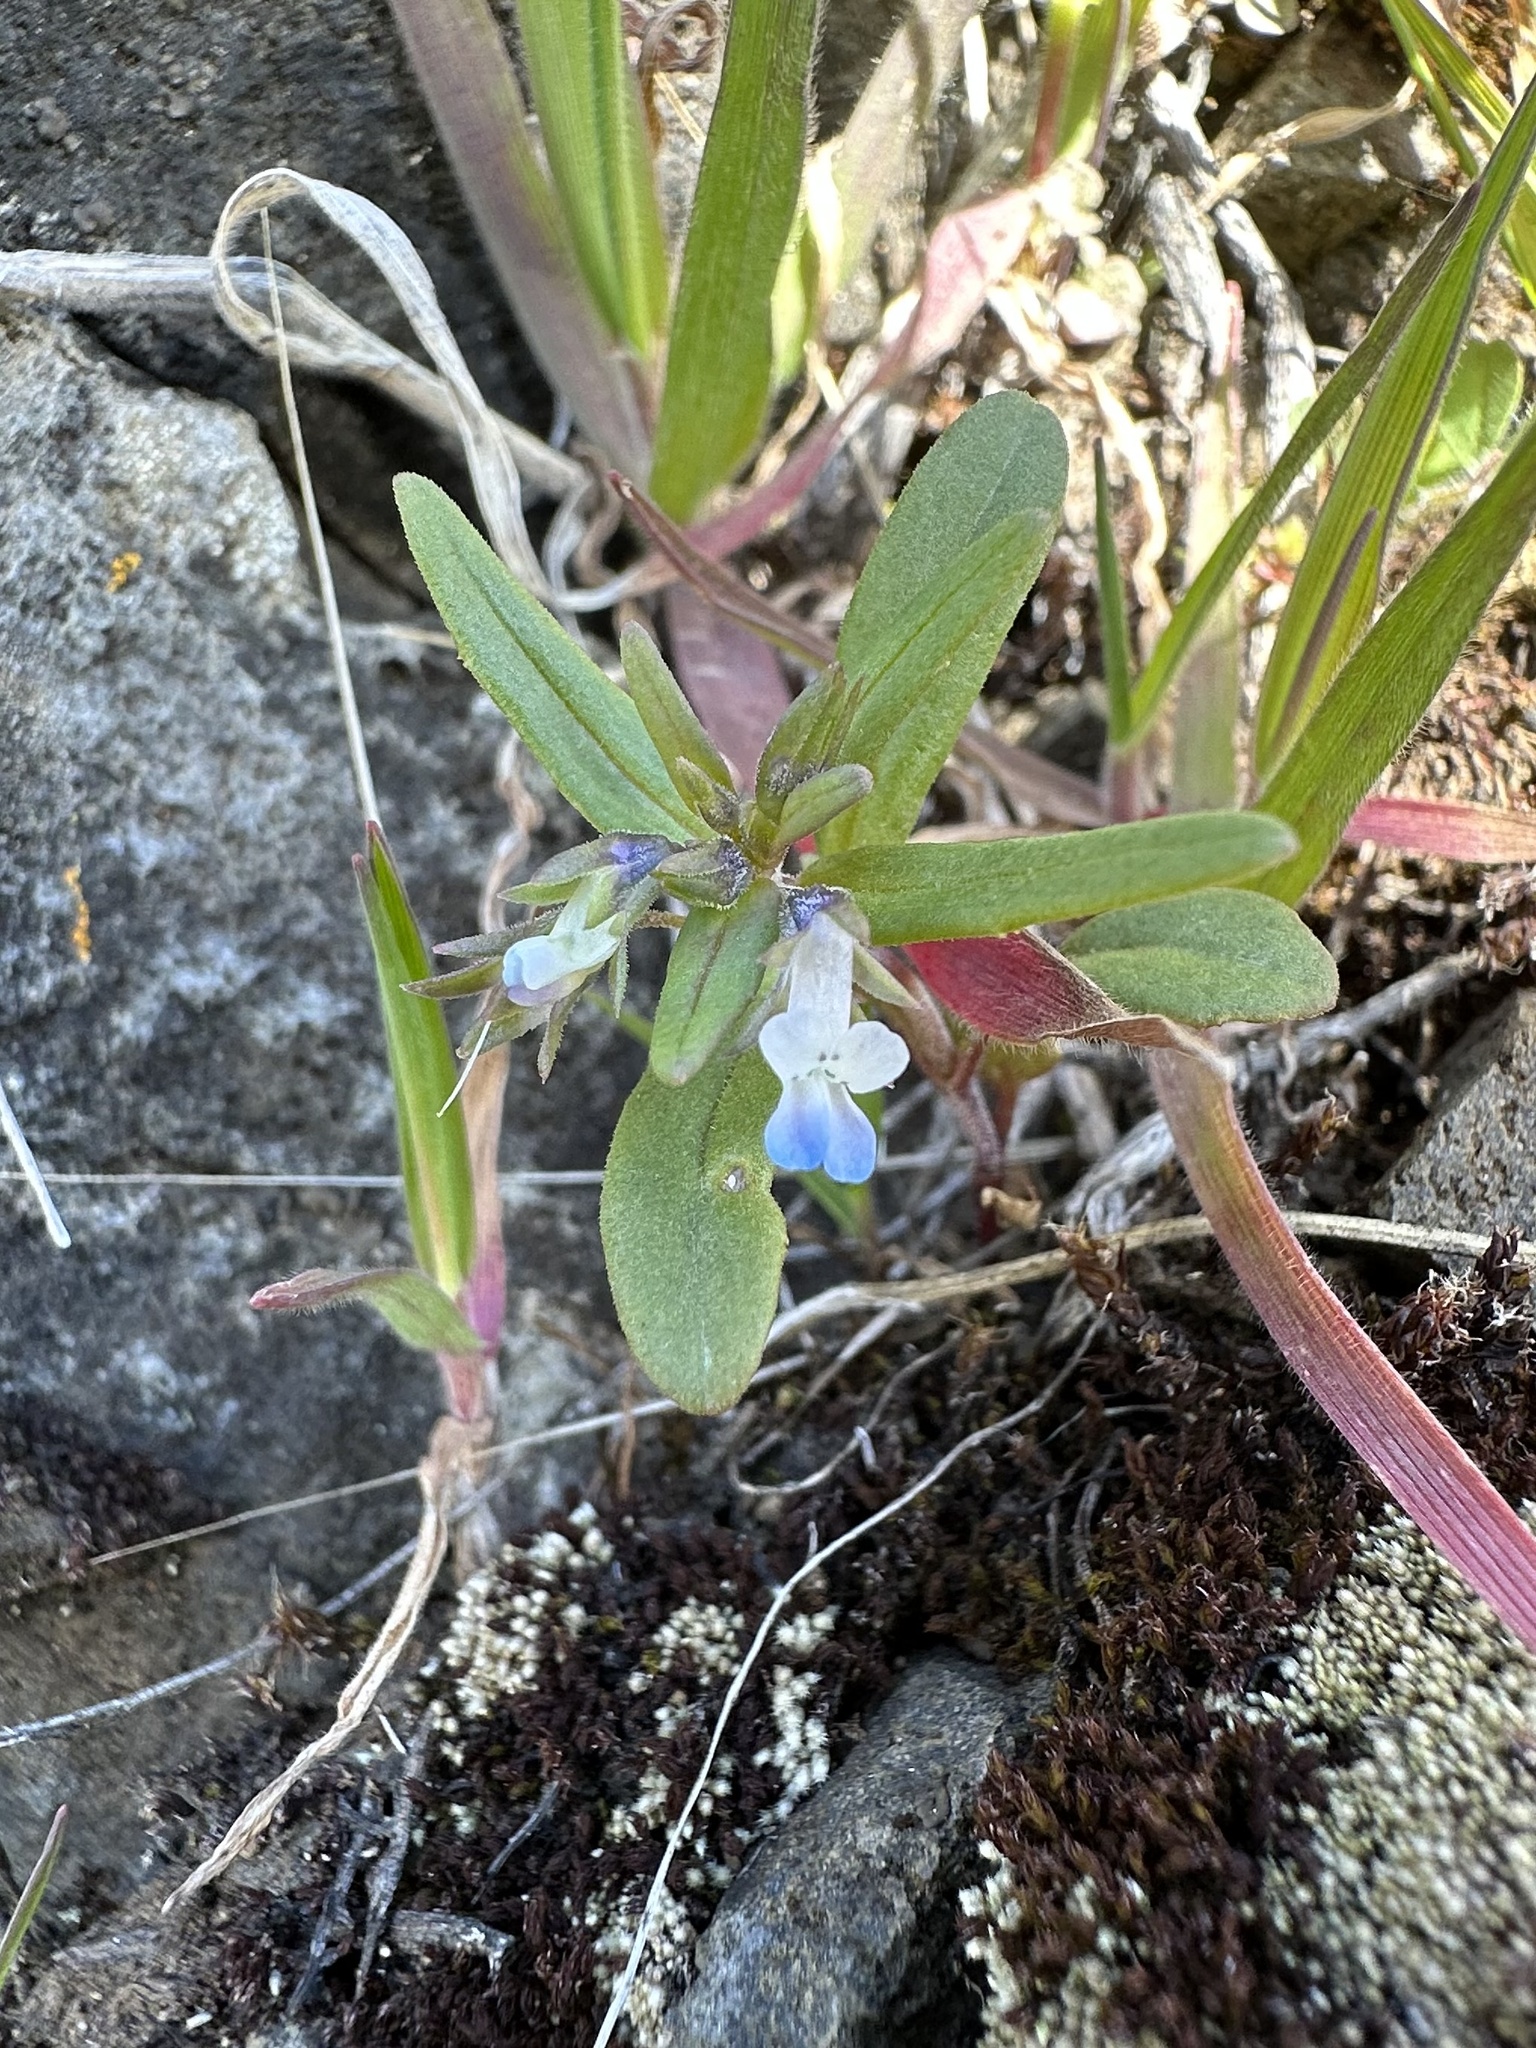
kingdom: Plantae
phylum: Tracheophyta
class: Magnoliopsida
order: Lamiales
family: Plantaginaceae
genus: Collinsia
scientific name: Collinsia parviflora
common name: Blue-lips
